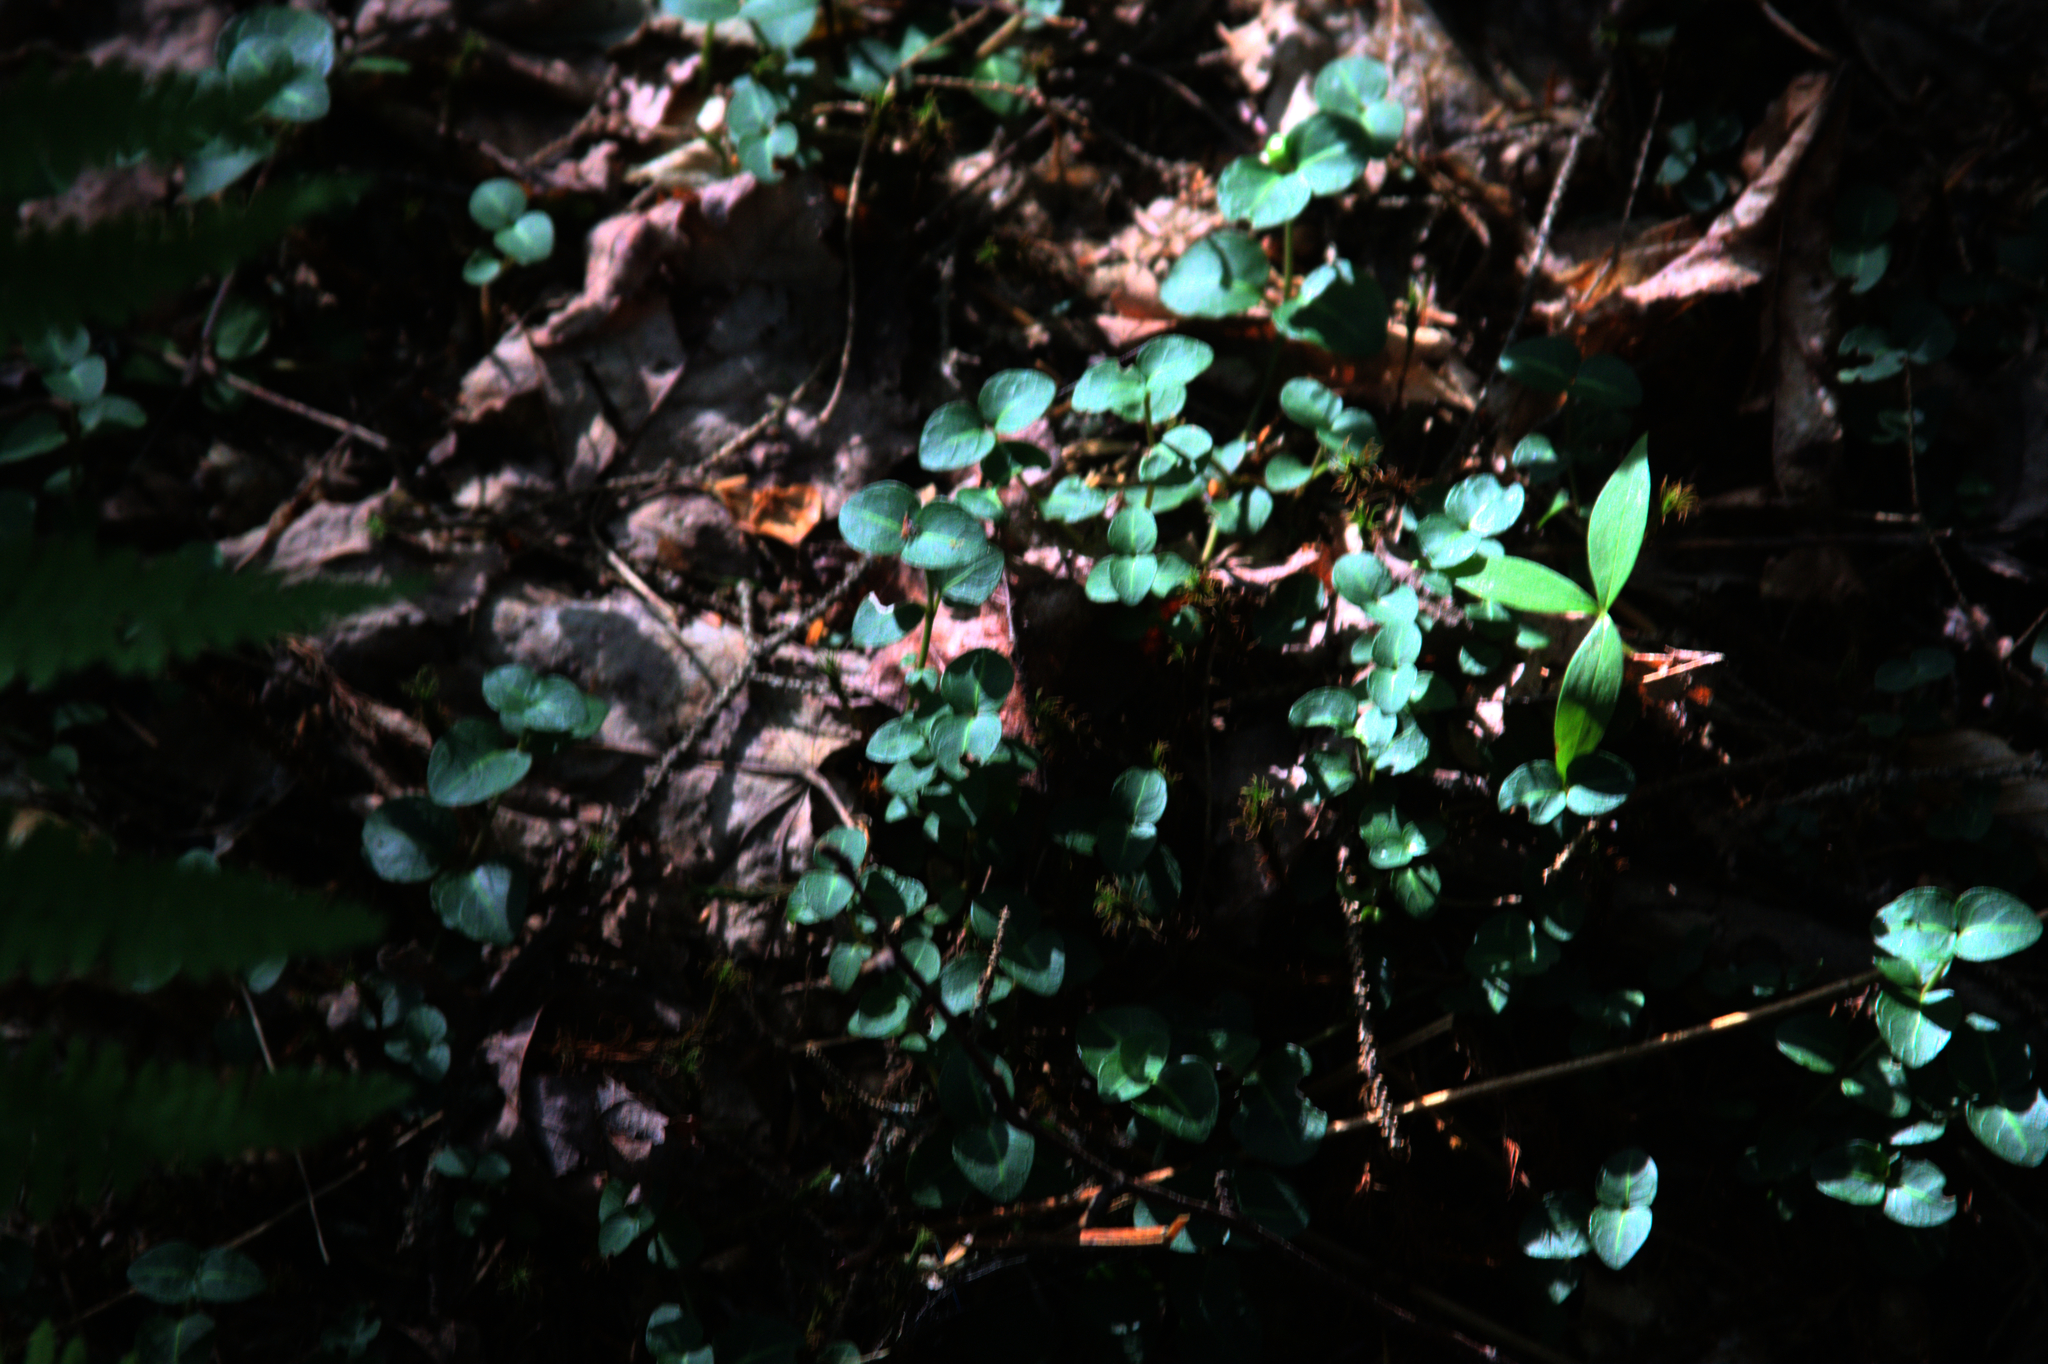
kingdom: Plantae
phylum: Tracheophyta
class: Magnoliopsida
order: Gentianales
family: Rubiaceae
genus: Mitchella
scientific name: Mitchella repens
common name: Partridge-berry
